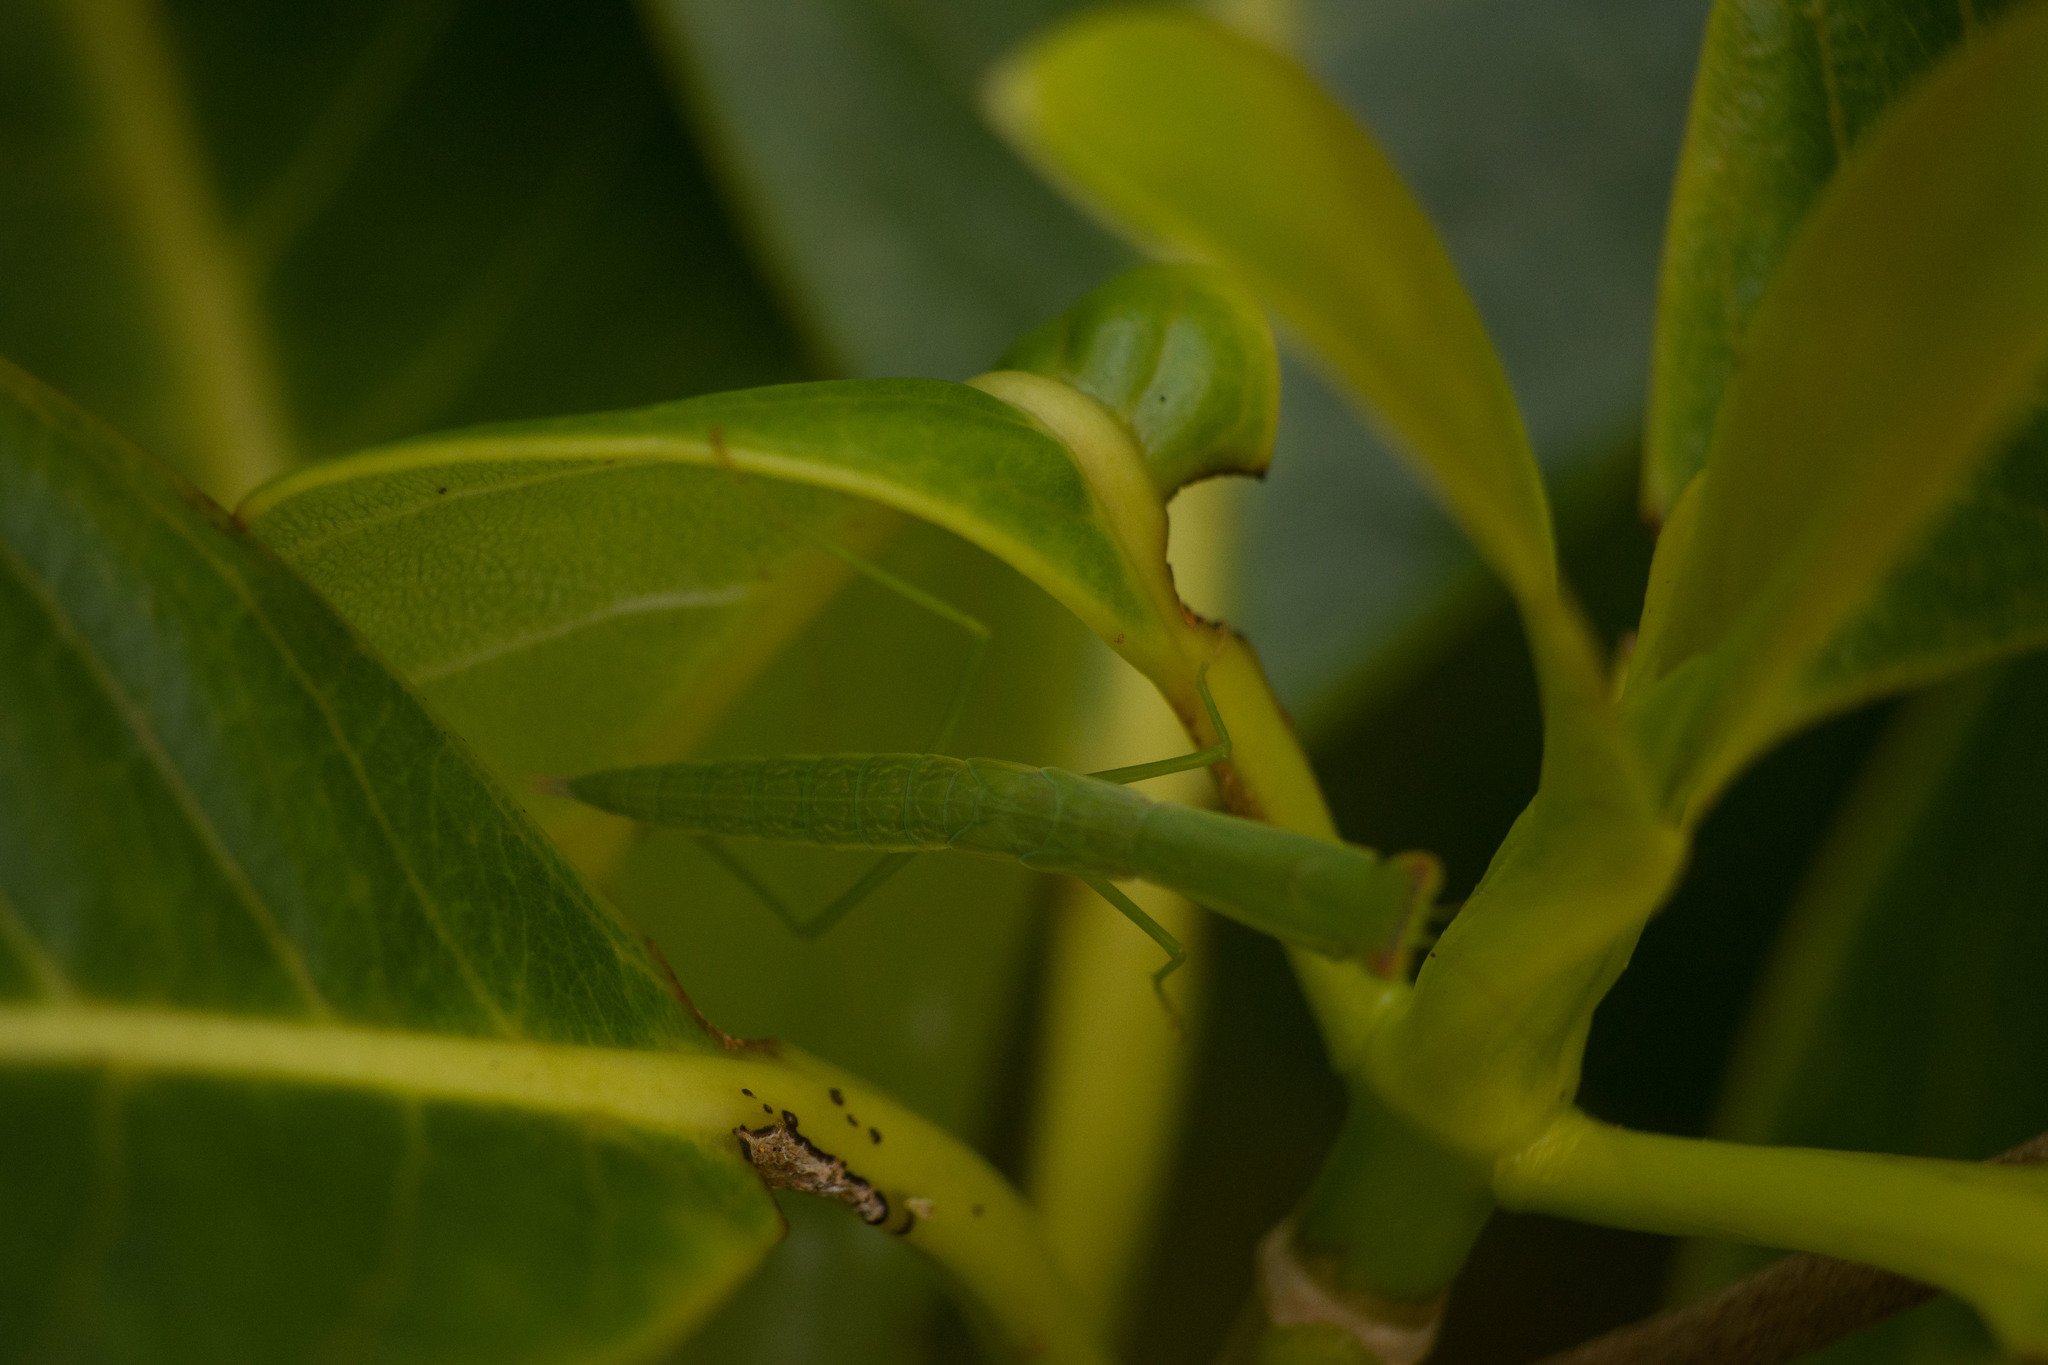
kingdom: Animalia
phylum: Arthropoda
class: Insecta
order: Mantodea
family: Mantidae
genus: Orthodera
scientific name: Orthodera ministralis
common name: Mantis
